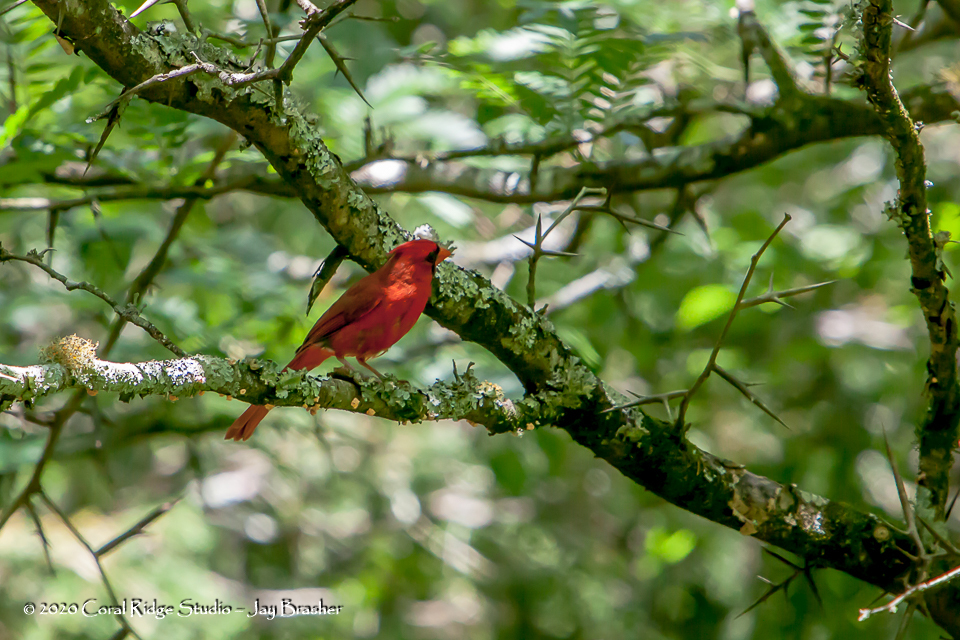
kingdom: Animalia
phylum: Chordata
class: Aves
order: Passeriformes
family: Cardinalidae
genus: Cardinalis
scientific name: Cardinalis cardinalis
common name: Northern cardinal
